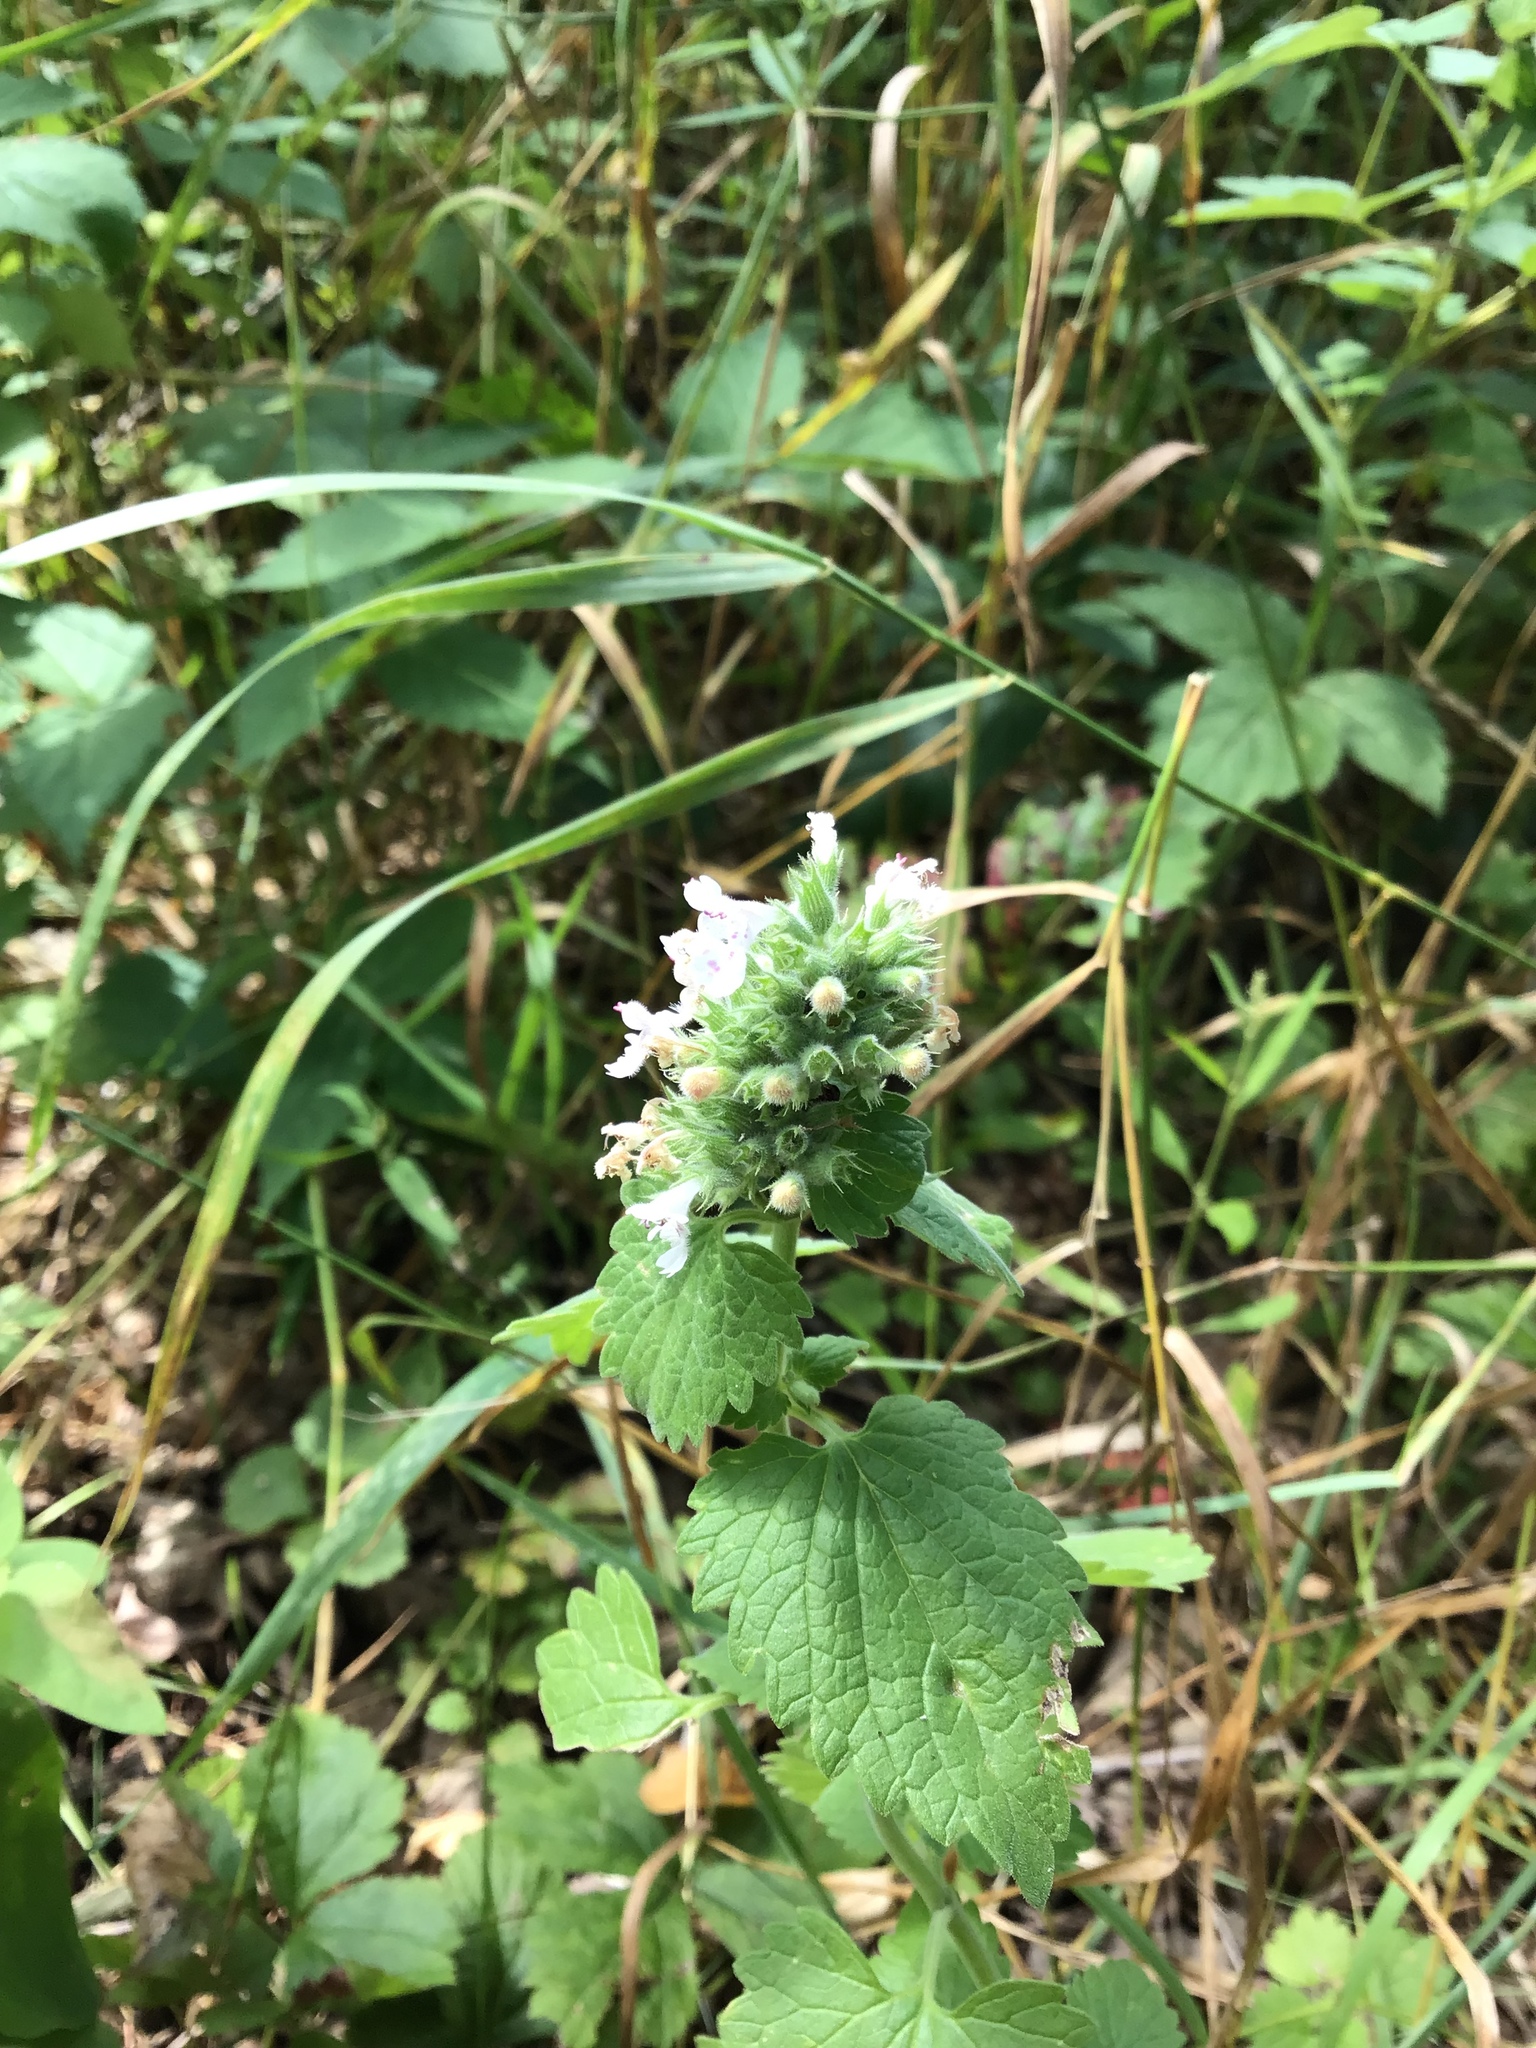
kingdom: Plantae
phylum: Tracheophyta
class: Magnoliopsida
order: Lamiales
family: Lamiaceae
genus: Nepeta
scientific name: Nepeta cataria
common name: Catnip
